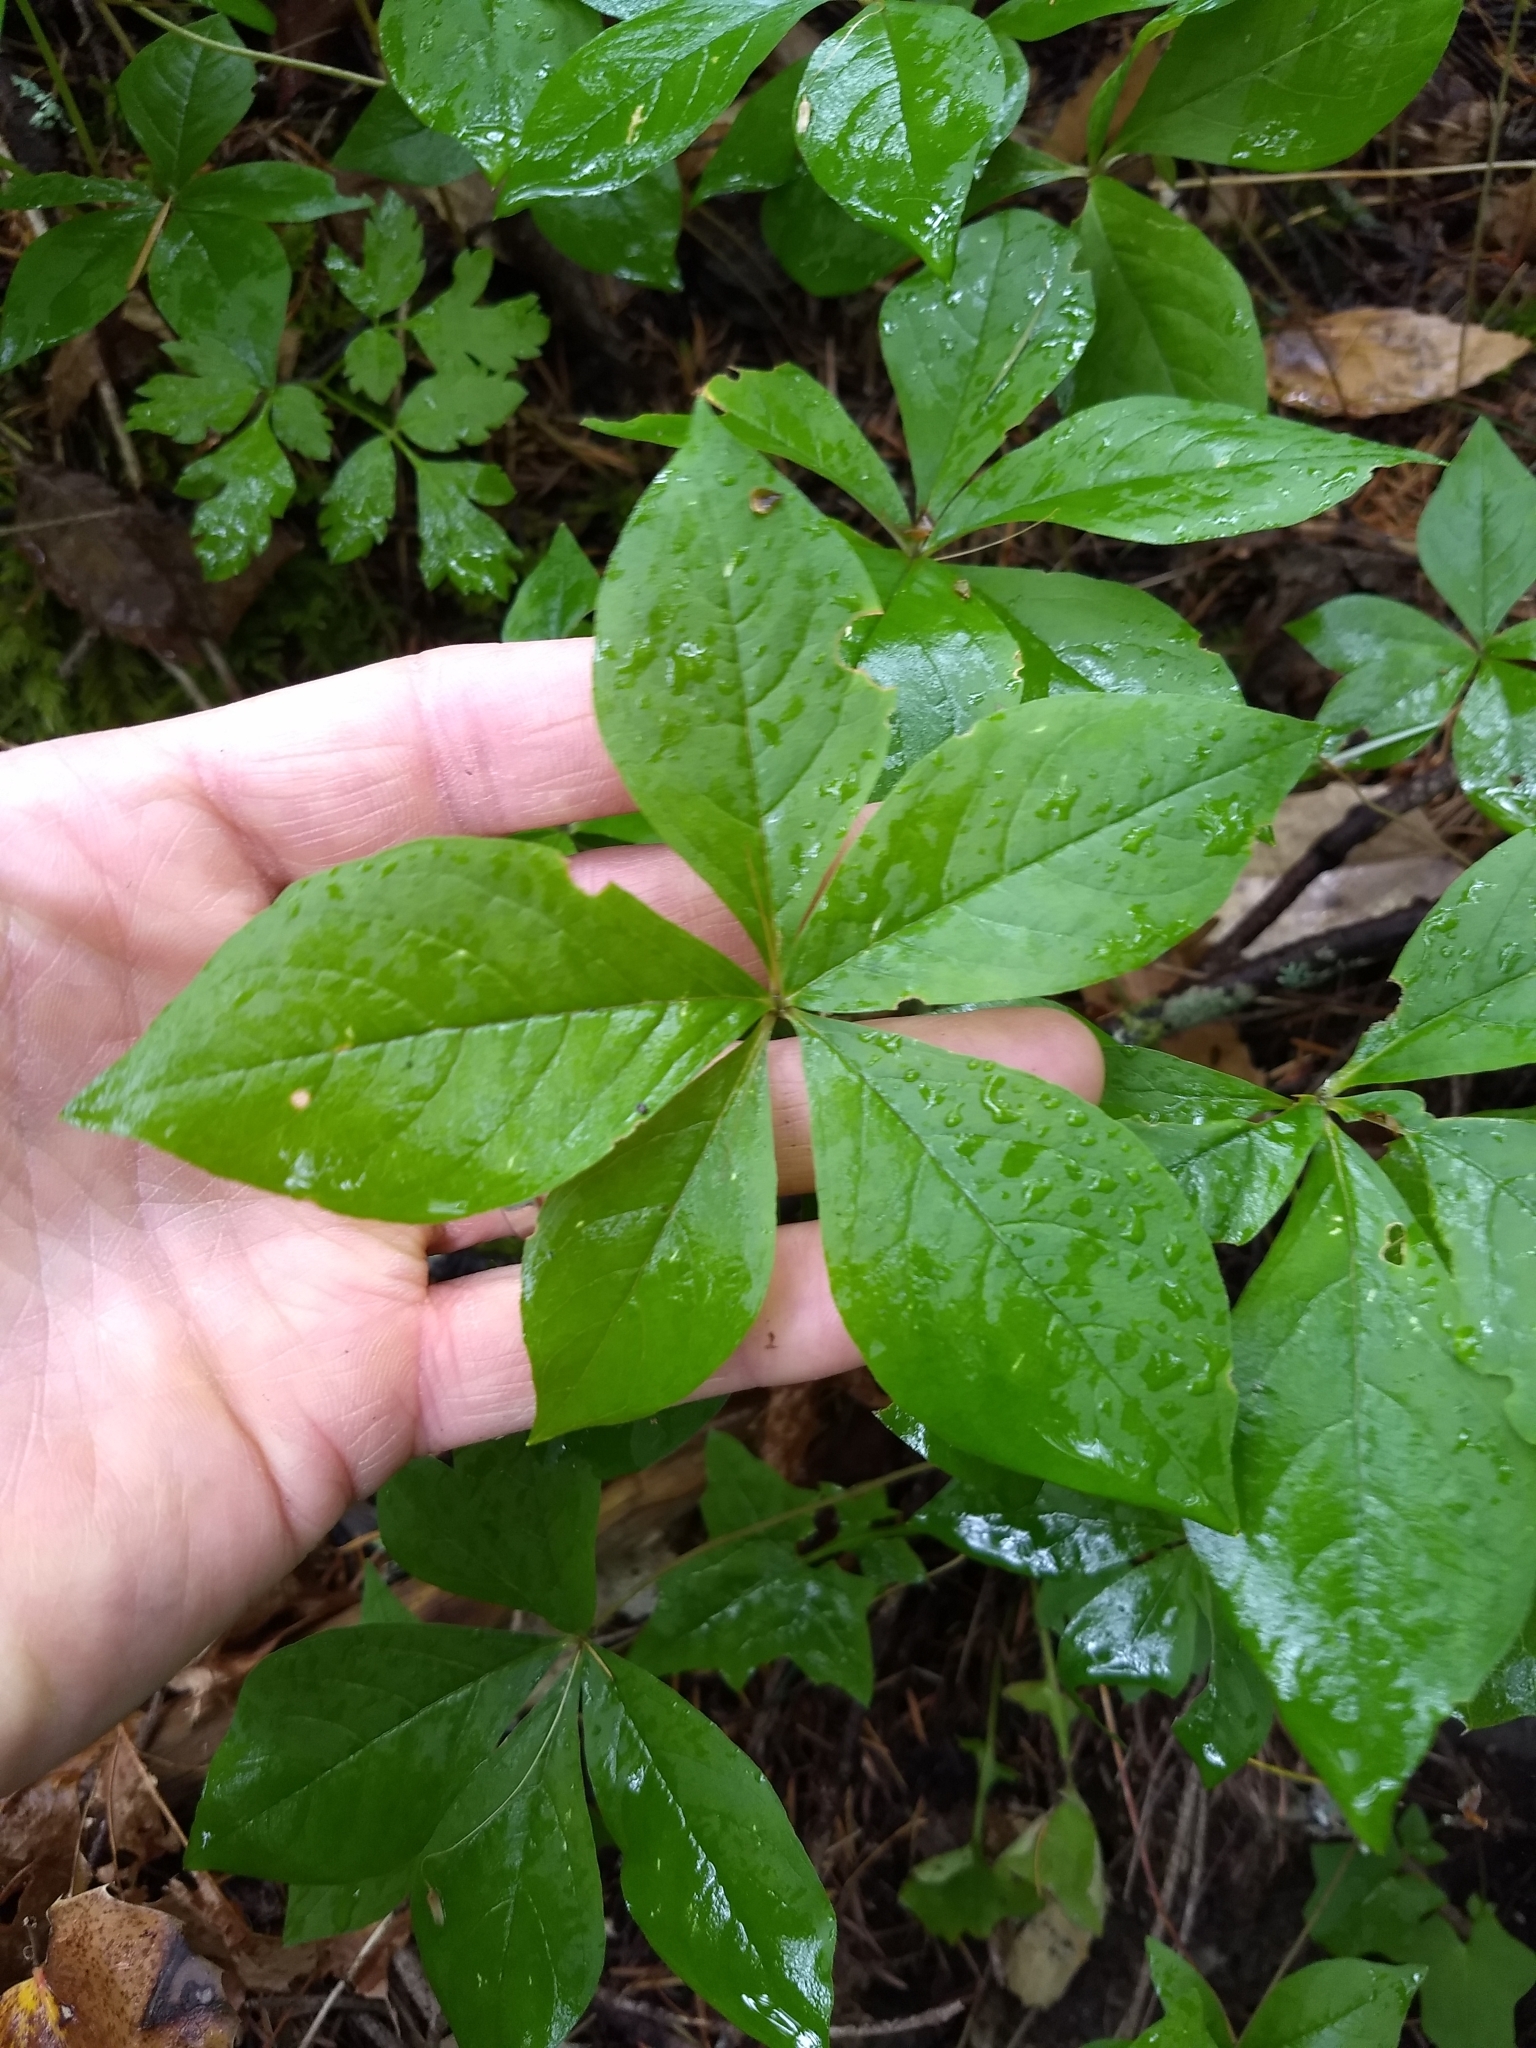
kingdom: Plantae
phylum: Tracheophyta
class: Magnoliopsida
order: Ericales
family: Primulaceae
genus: Lysimachia
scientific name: Lysimachia latifolia
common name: Pacific starflower
